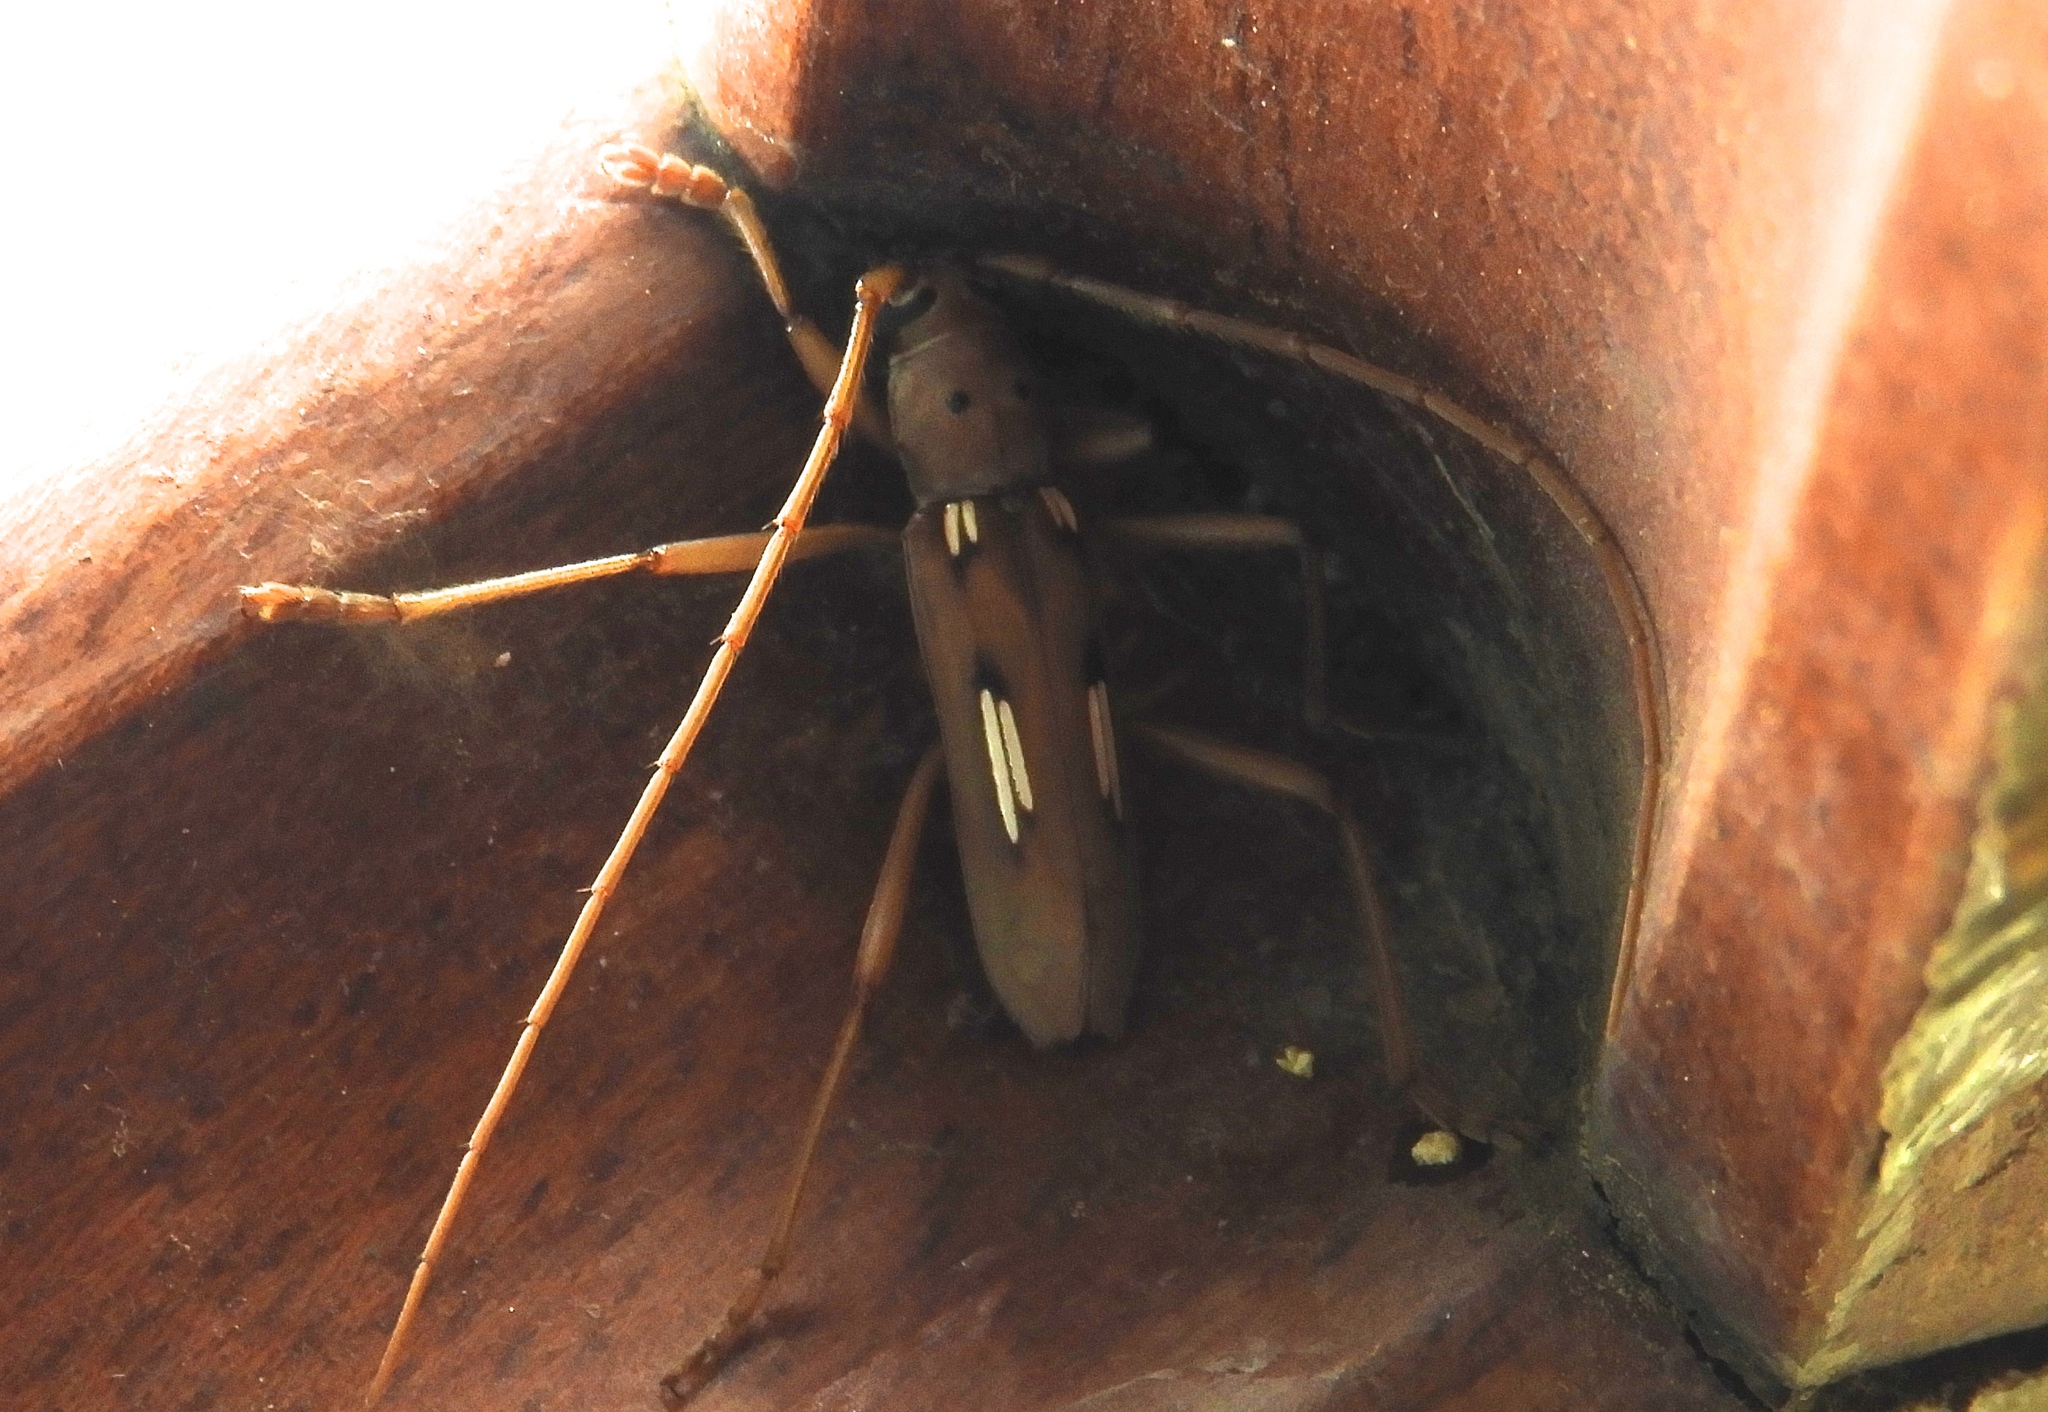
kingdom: Animalia
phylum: Arthropoda
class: Insecta
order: Coleoptera
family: Cerambycidae
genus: Eburia
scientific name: Eburia paraegrota
